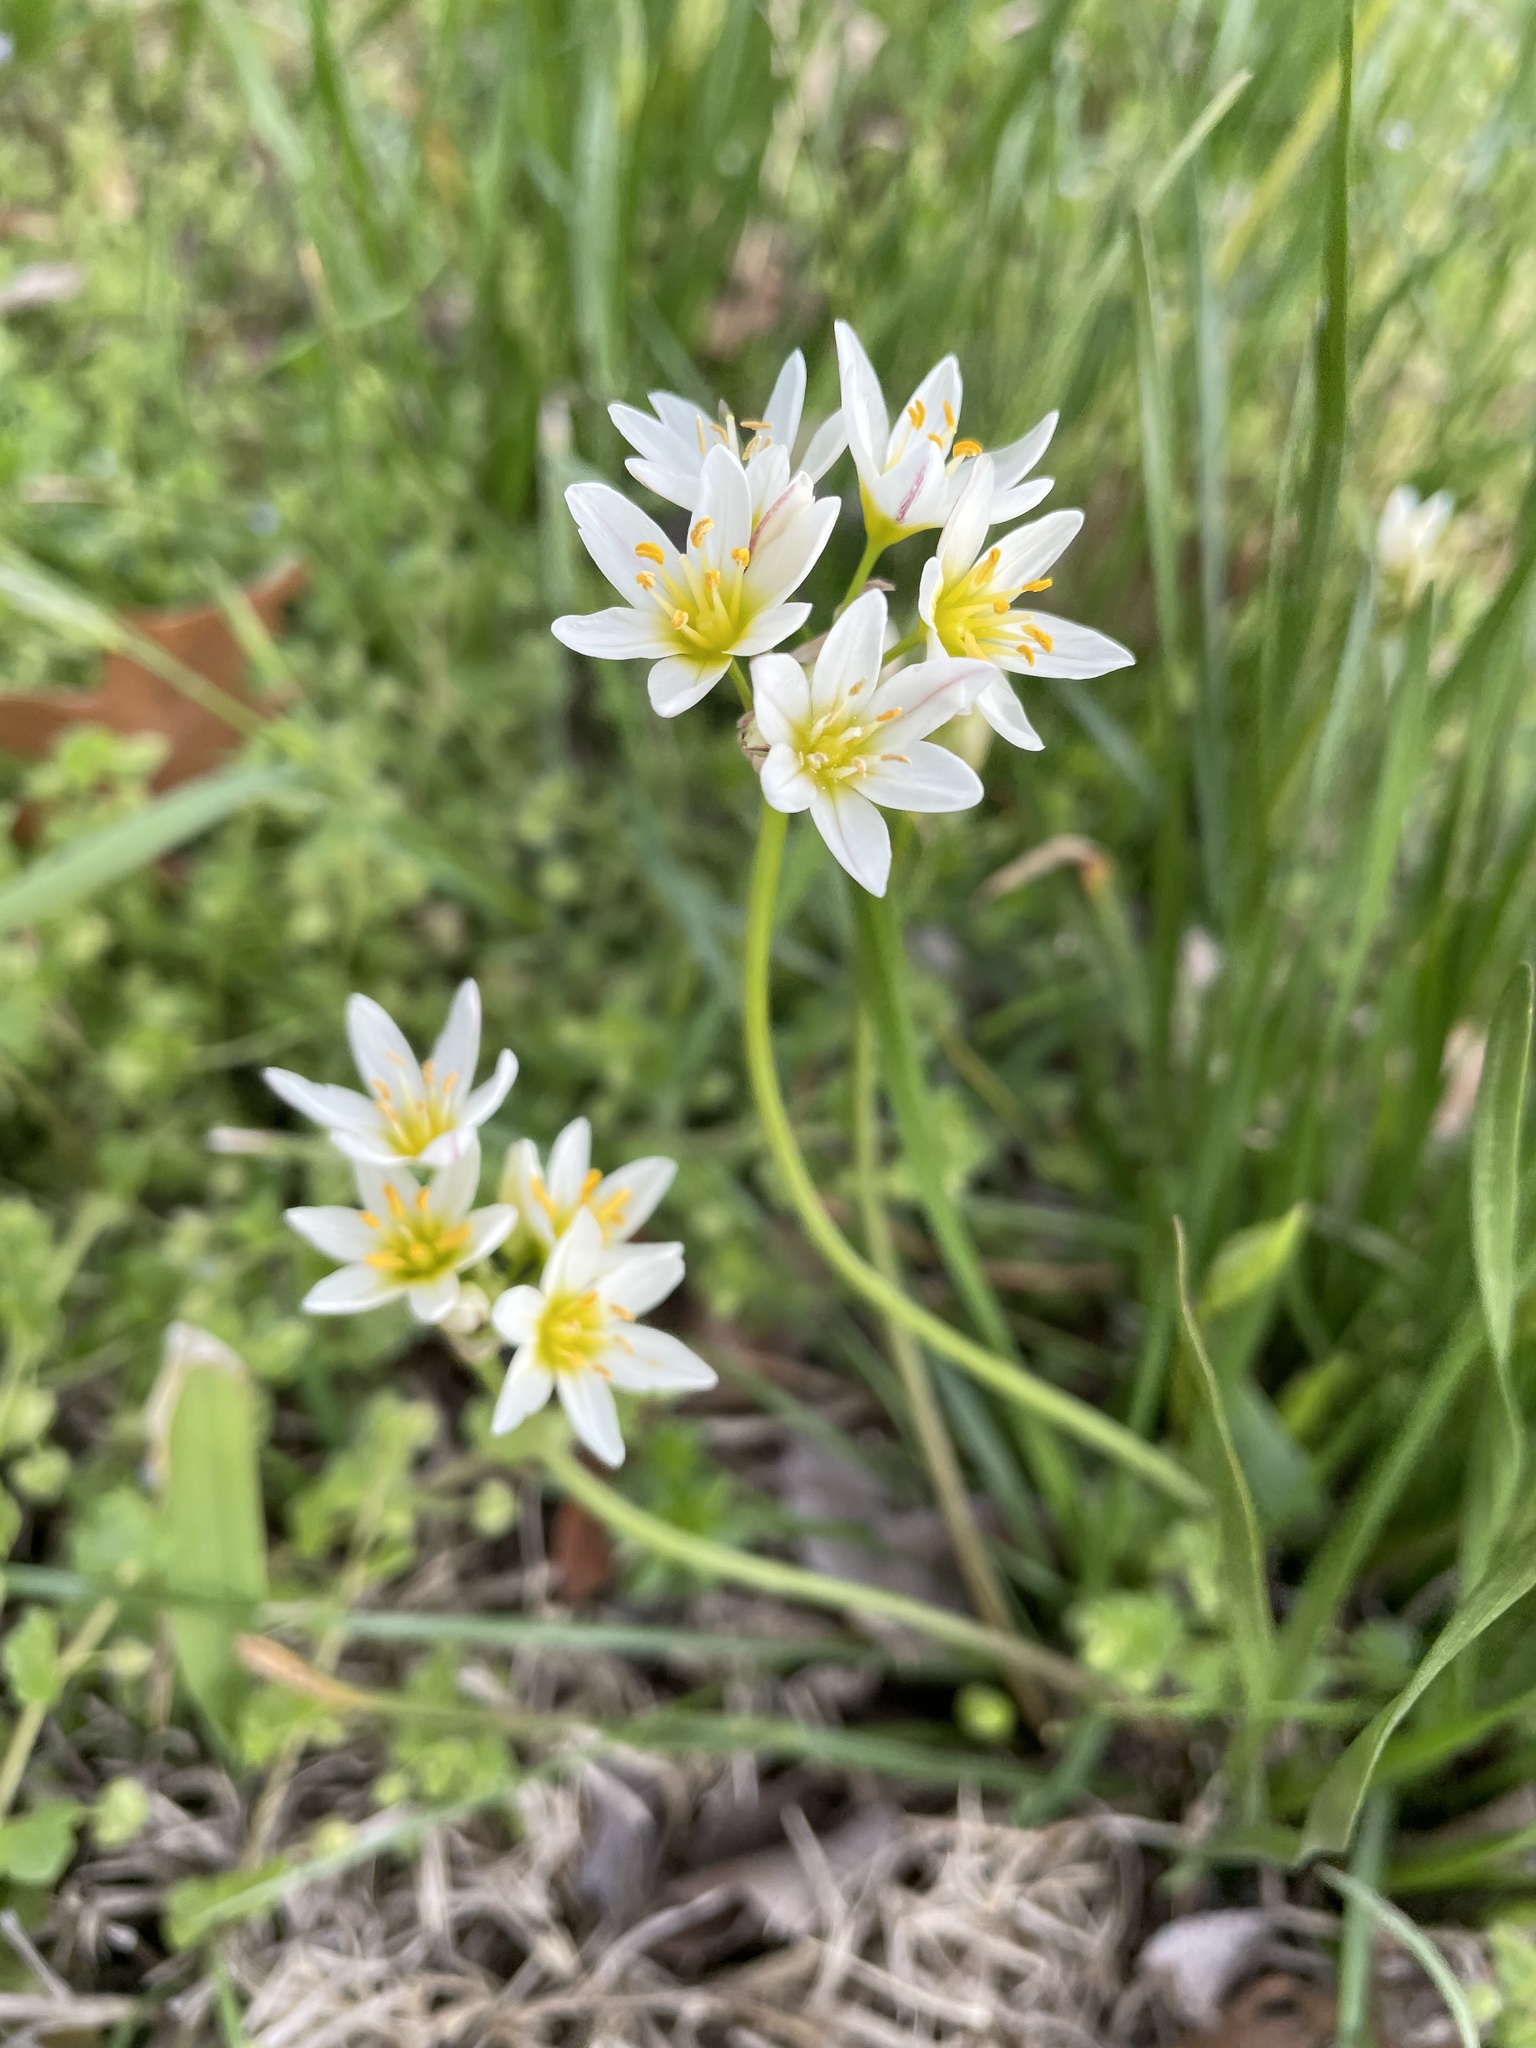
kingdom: Plantae
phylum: Tracheophyta
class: Liliopsida
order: Asparagales
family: Amaryllidaceae
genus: Nothoscordum
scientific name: Nothoscordum bivalve
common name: Crow-poison
